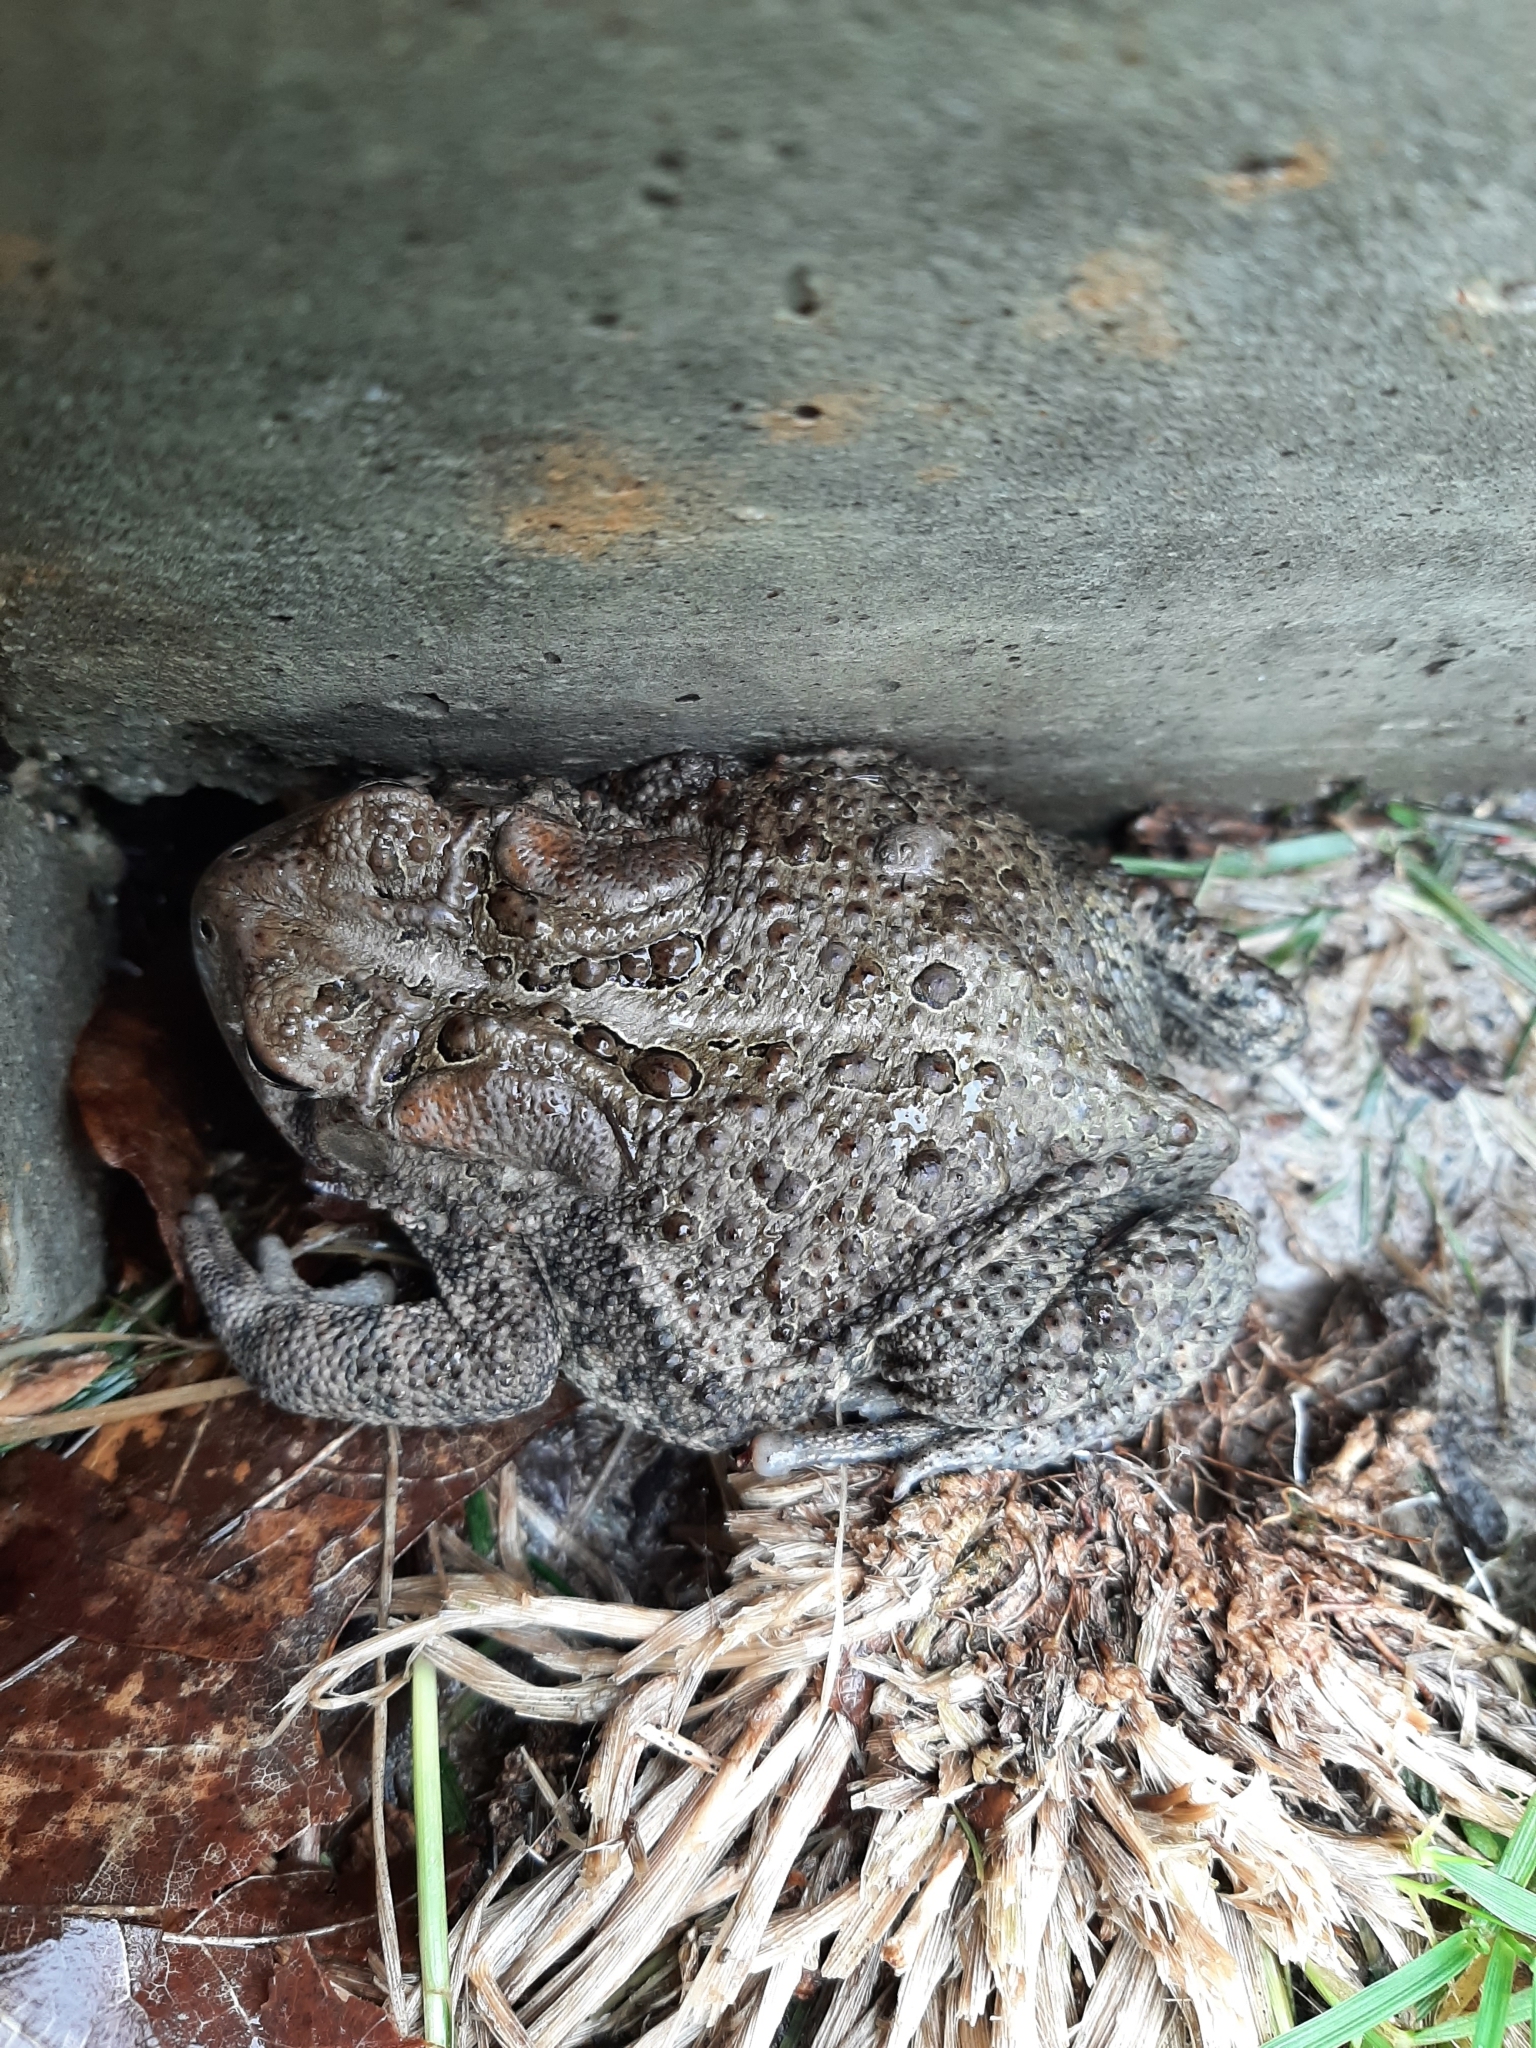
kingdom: Animalia
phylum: Chordata
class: Amphibia
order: Anura
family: Bufonidae
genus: Anaxyrus
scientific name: Anaxyrus americanus
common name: American toad
